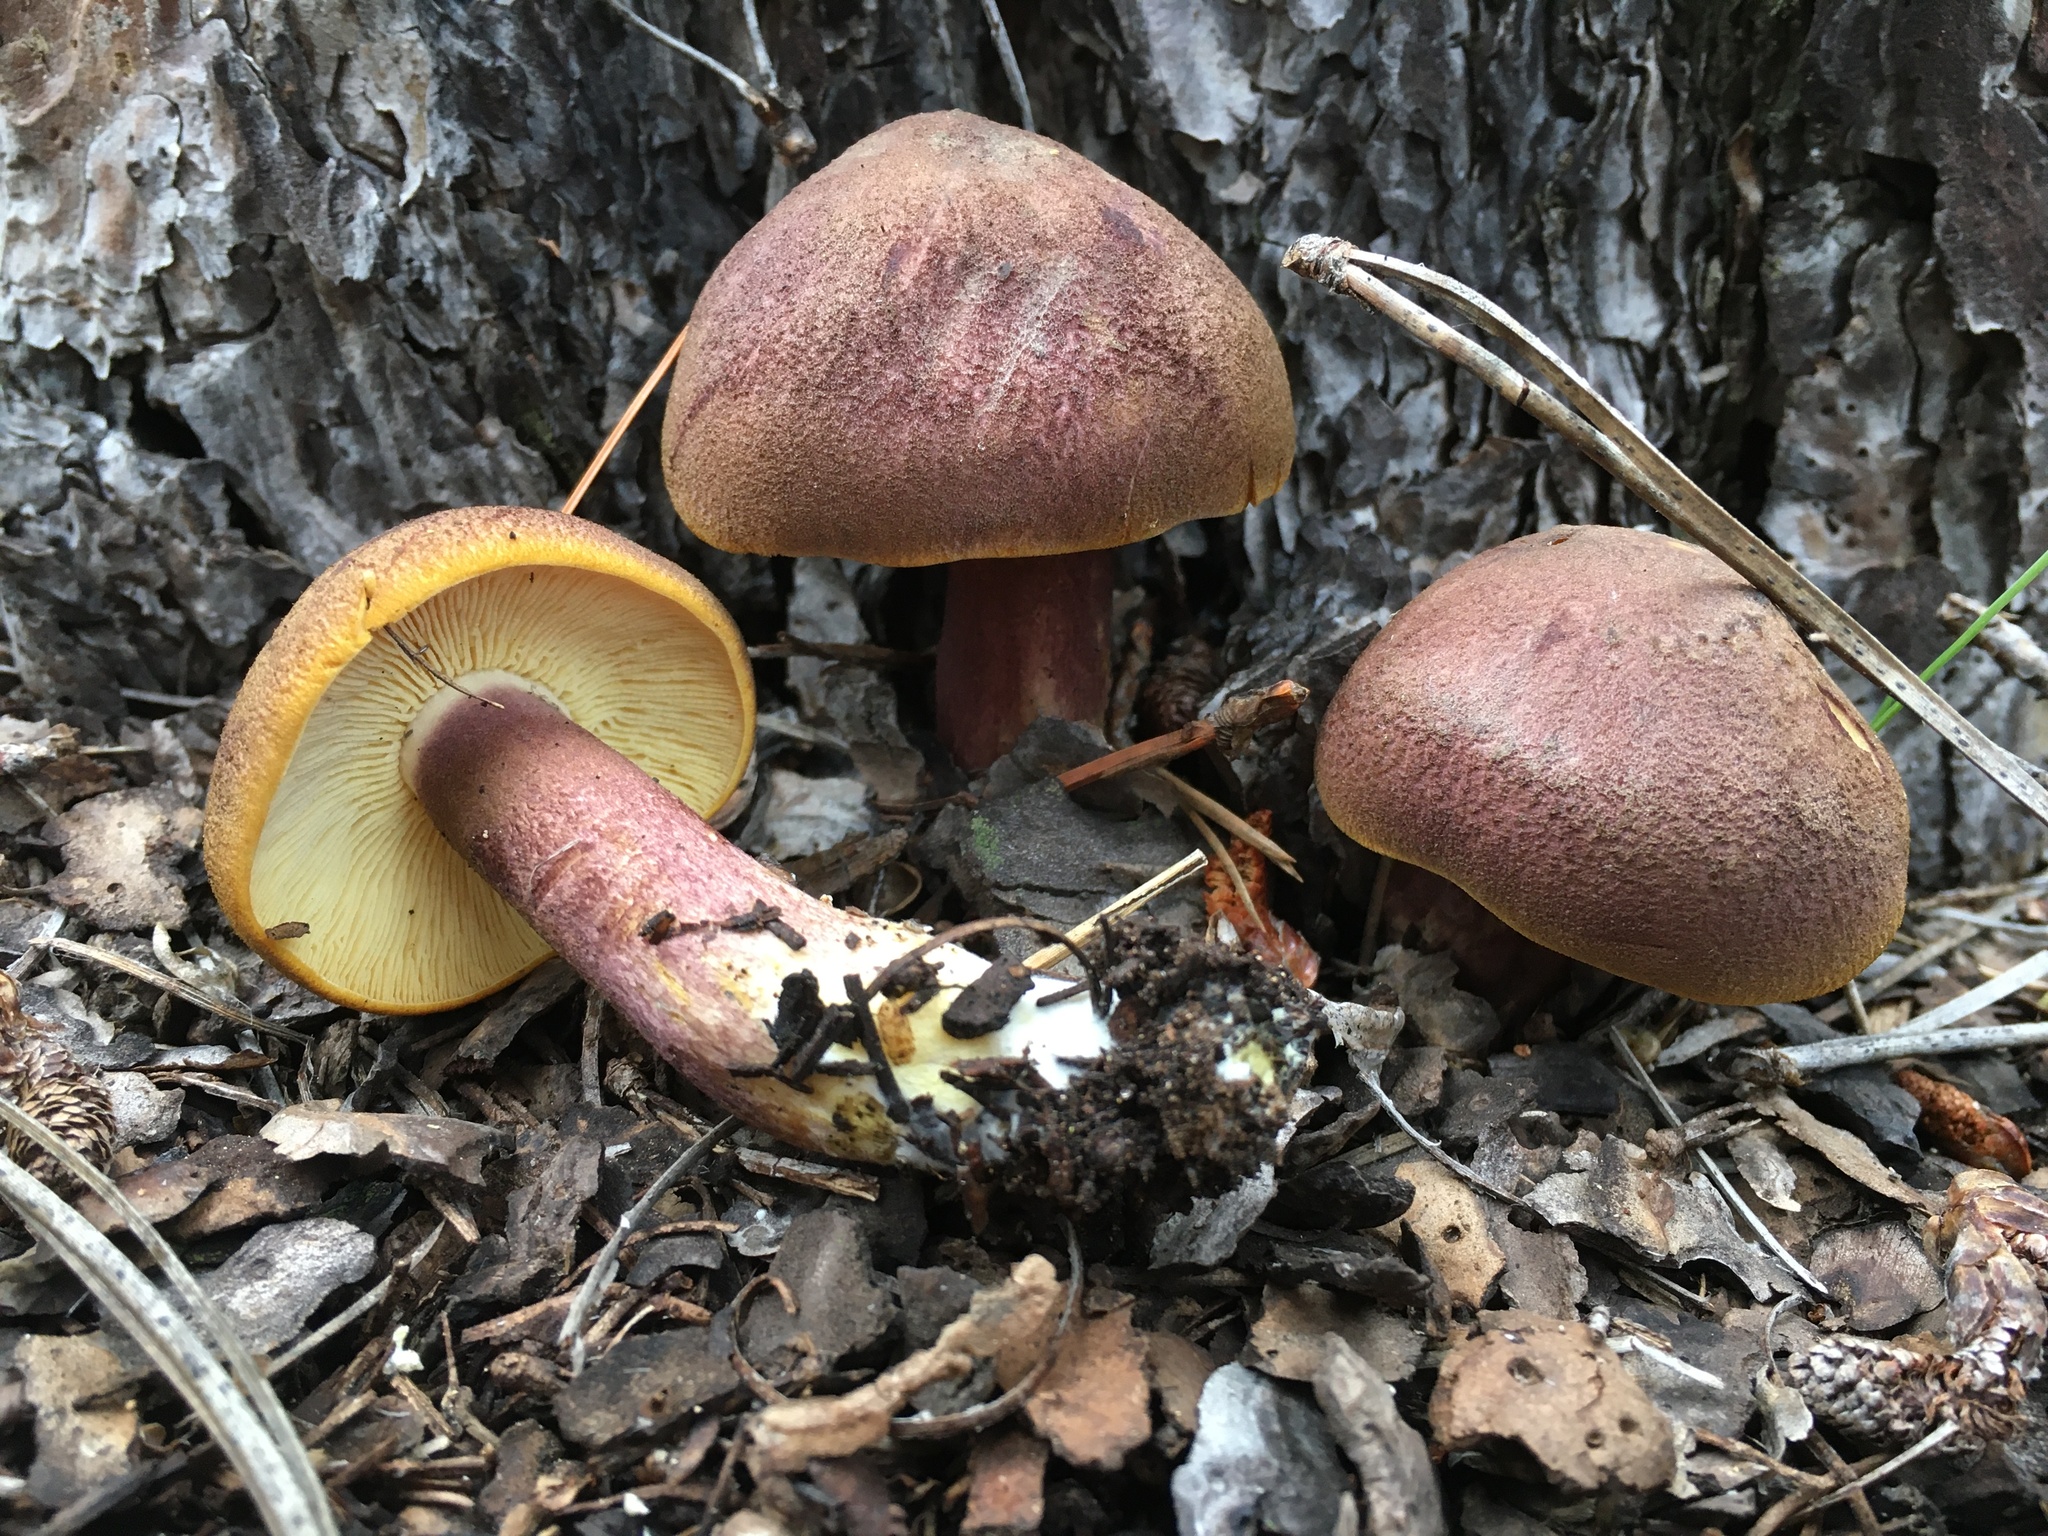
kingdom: Fungi
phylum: Basidiomycota
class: Agaricomycetes
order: Agaricales
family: Tricholomataceae
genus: Tricholomopsis
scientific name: Tricholomopsis rutilans
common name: Plums and custard
